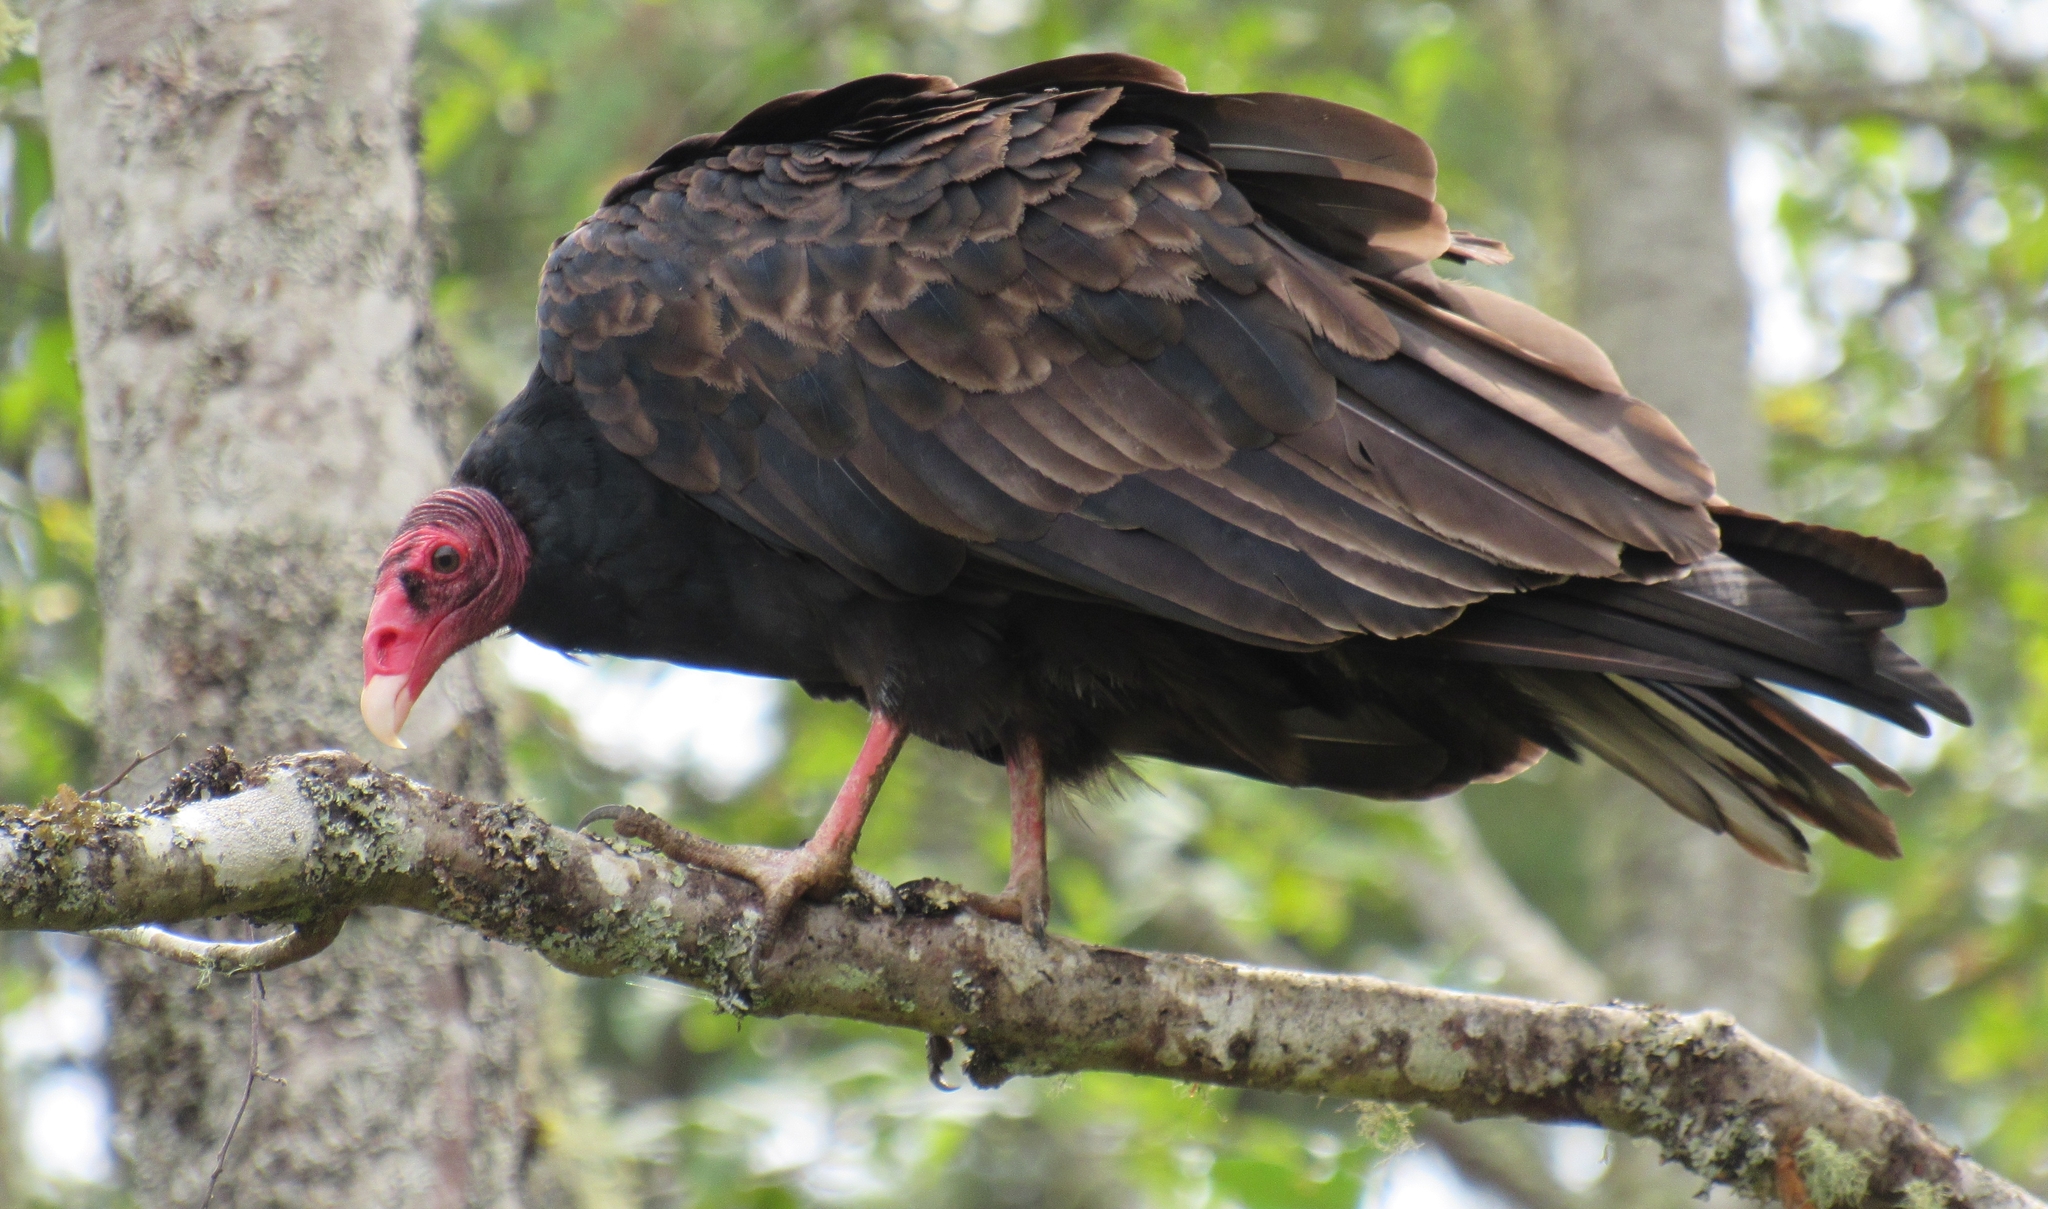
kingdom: Animalia
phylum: Chordata
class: Aves
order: Accipitriformes
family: Cathartidae
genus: Cathartes
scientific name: Cathartes aura
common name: Turkey vulture
